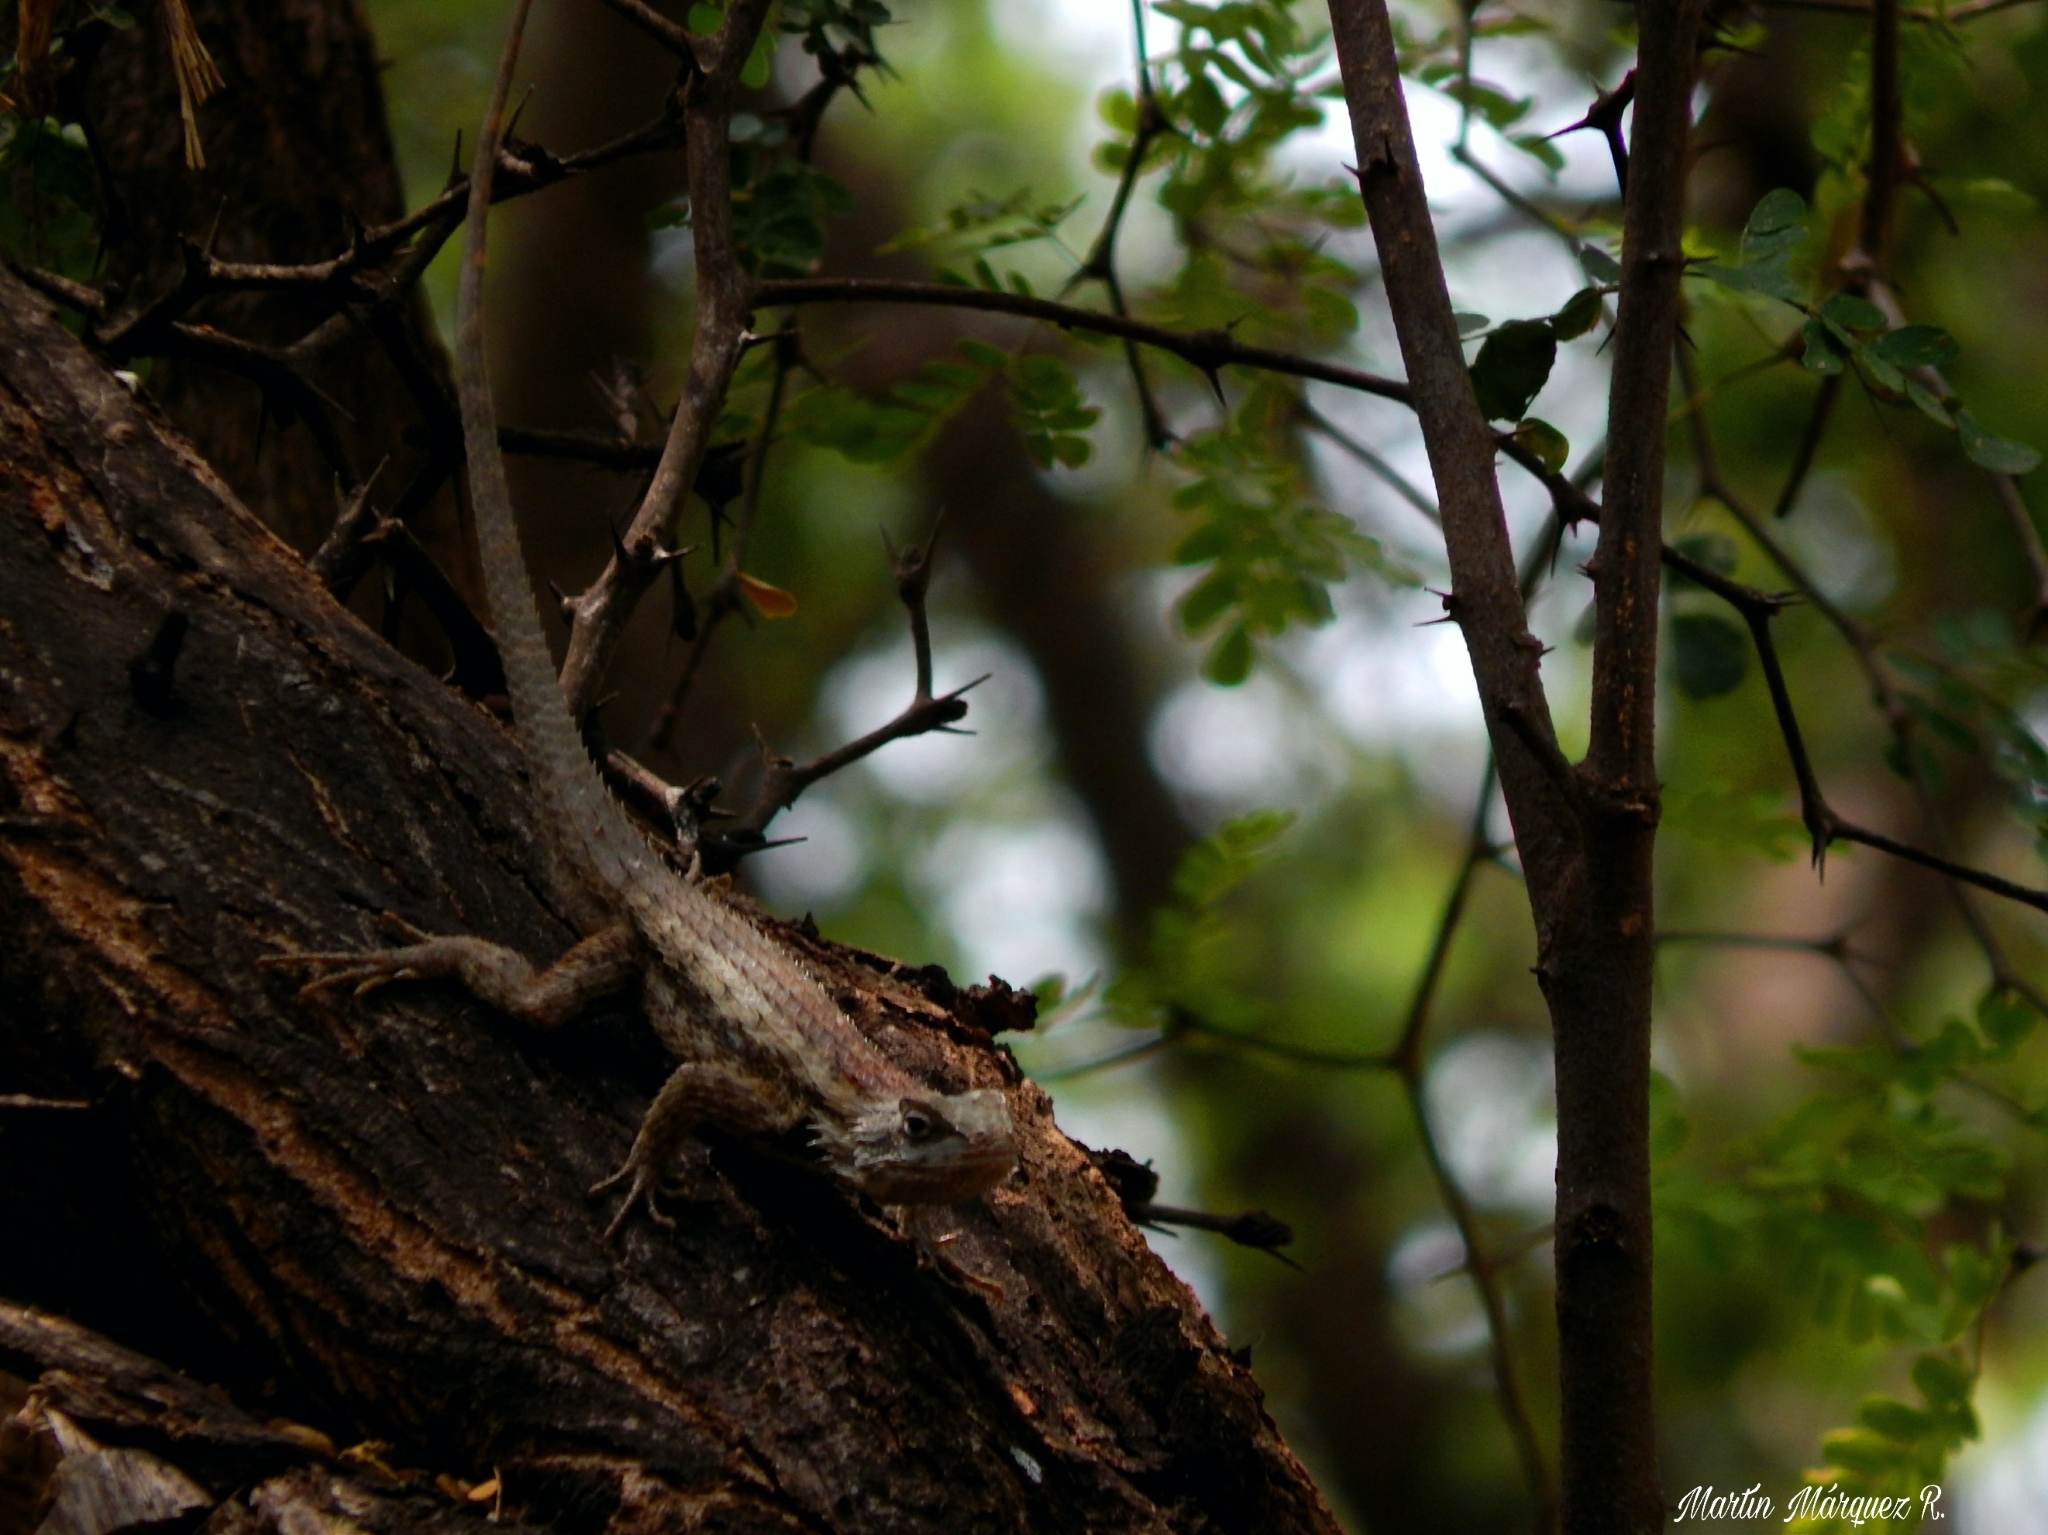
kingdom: Animalia
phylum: Chordata
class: Squamata
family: Phrynosomatidae
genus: Sceloporus
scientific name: Sceloporus olivaceus
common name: Texas spiny lizard
